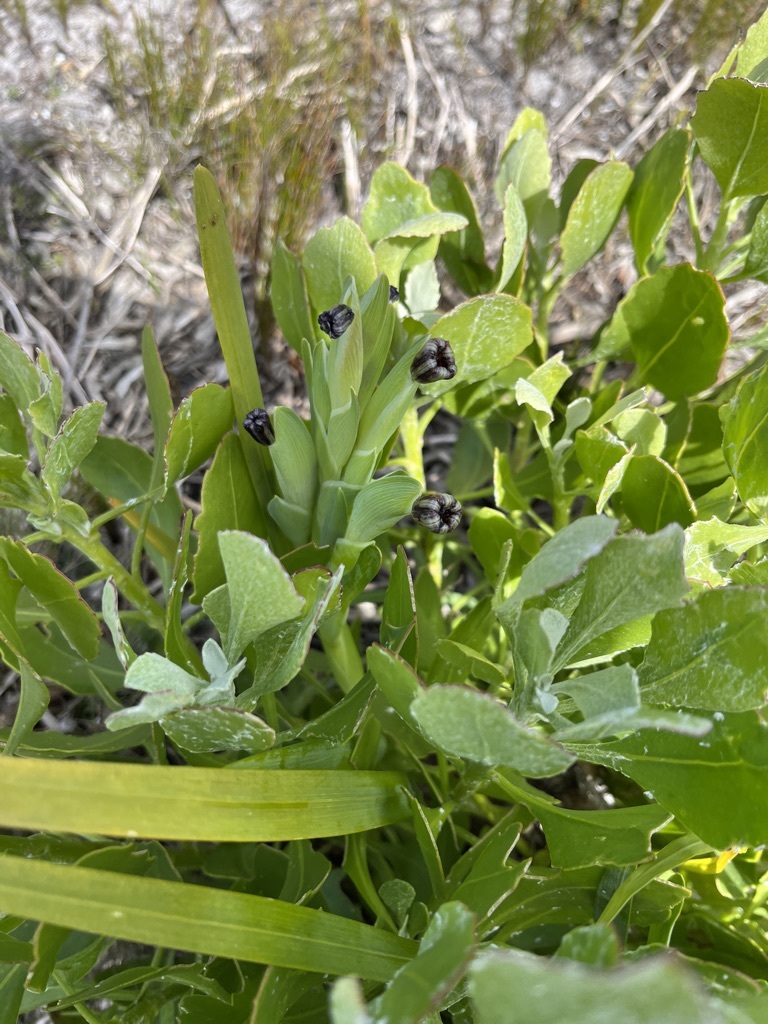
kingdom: Plantae
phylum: Tracheophyta
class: Liliopsida
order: Asparagales
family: Iridaceae
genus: Ferraria
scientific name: Ferraria crispa
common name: Black-flag
